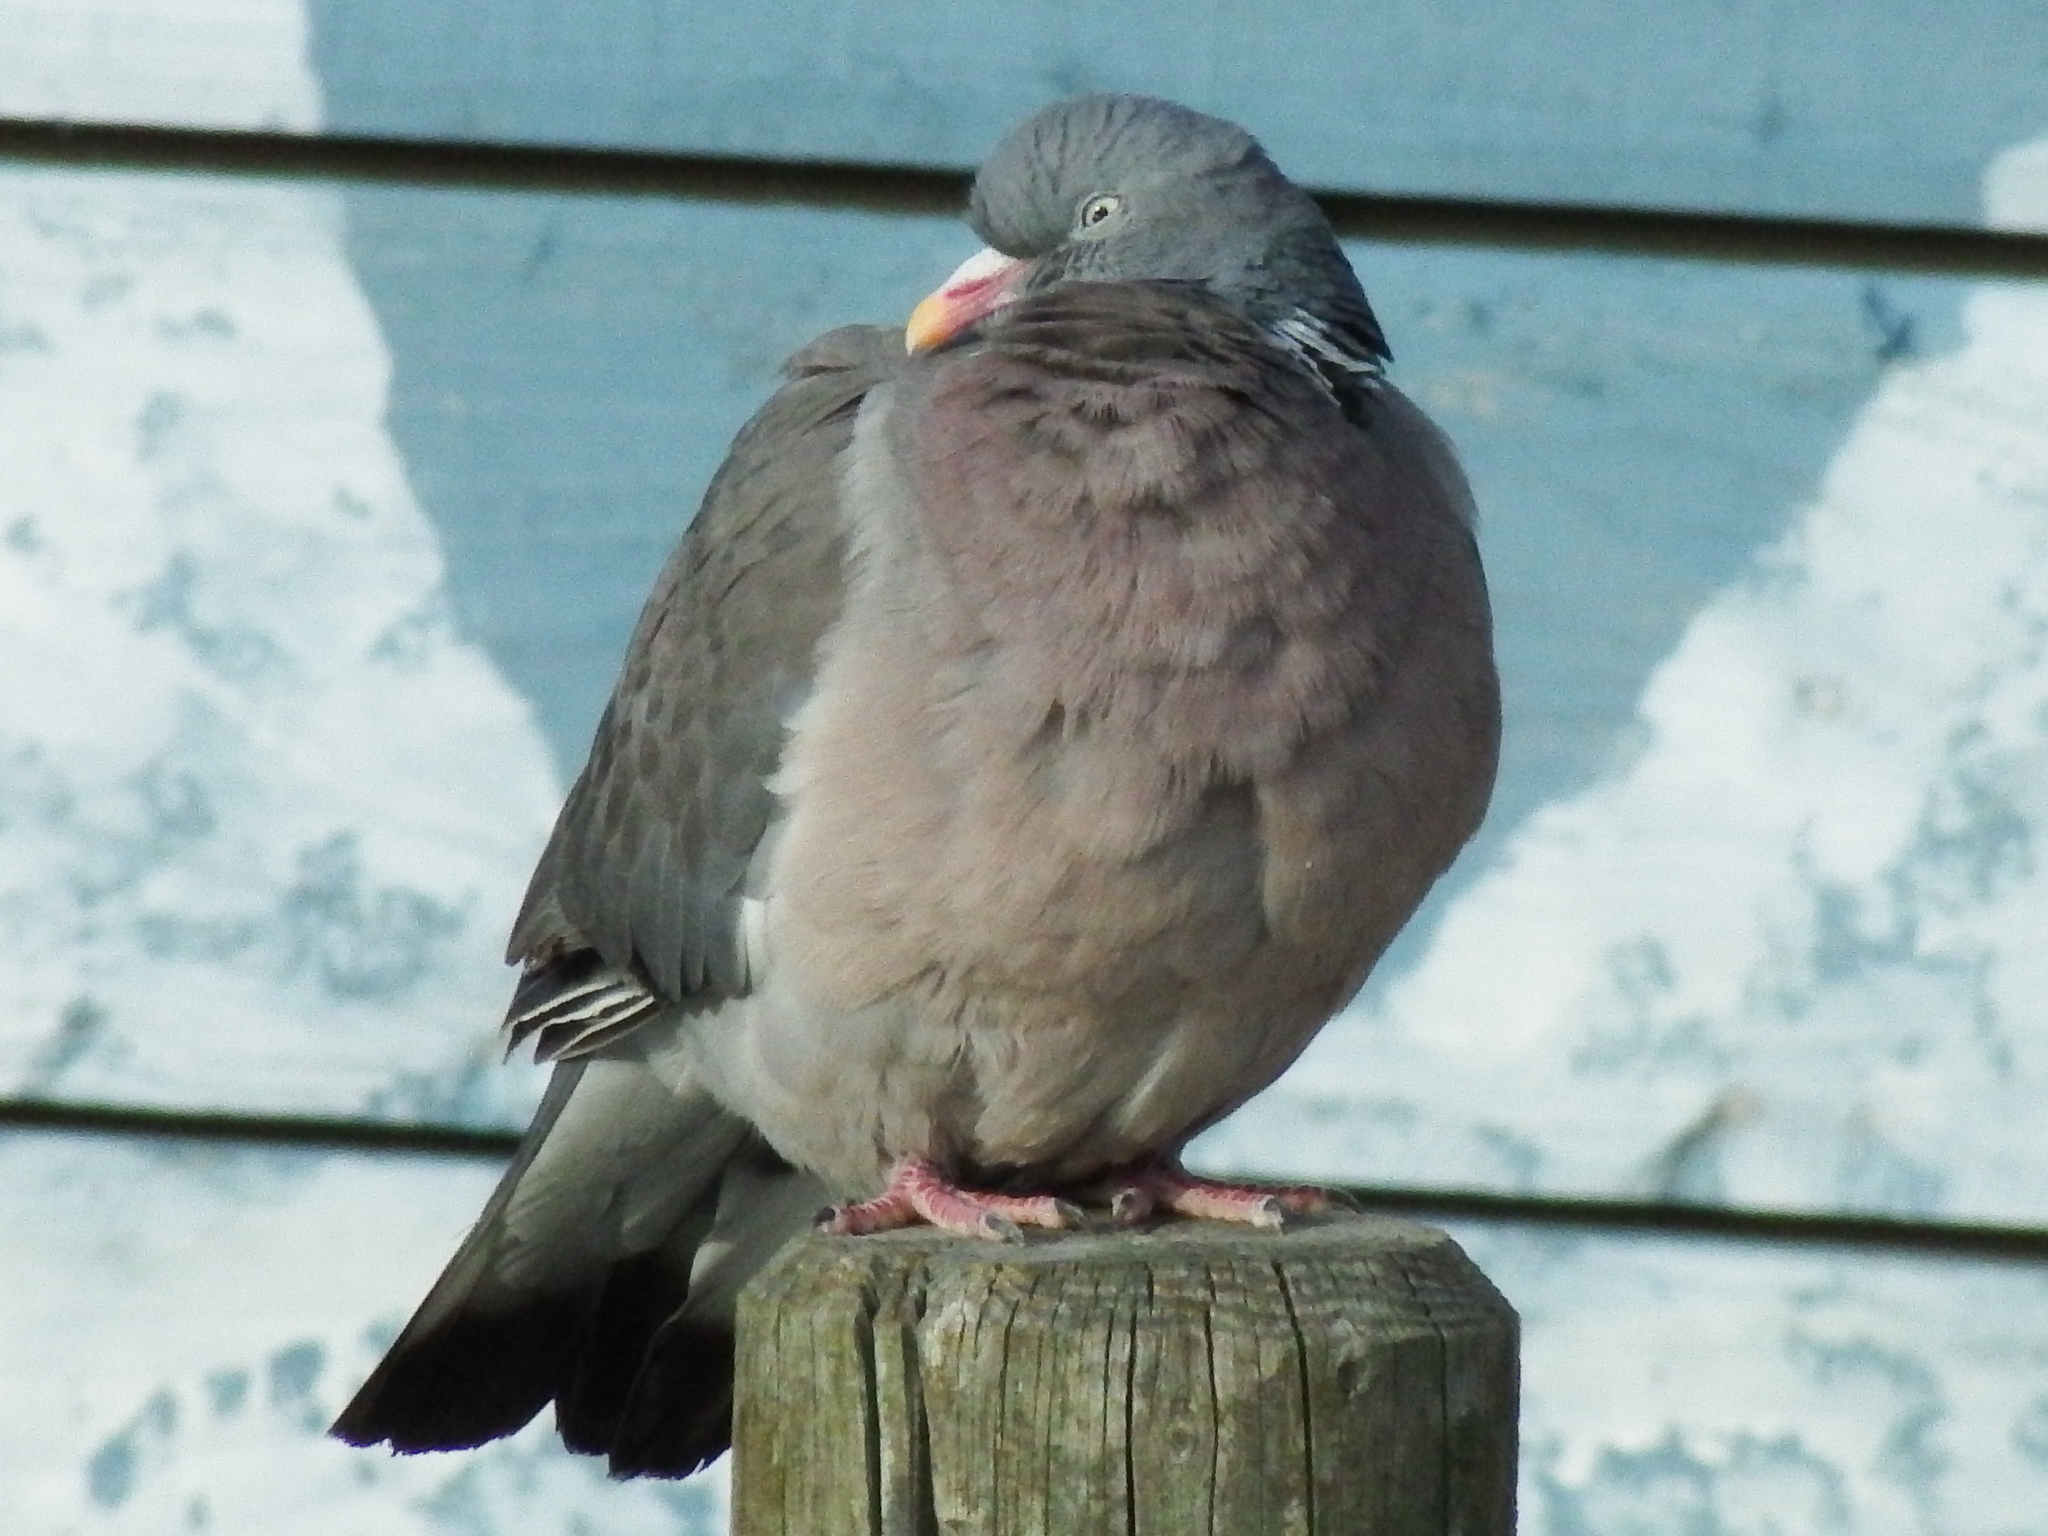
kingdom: Animalia
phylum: Chordata
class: Aves
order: Columbiformes
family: Columbidae
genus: Columba
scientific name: Columba palumbus
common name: Common wood pigeon
